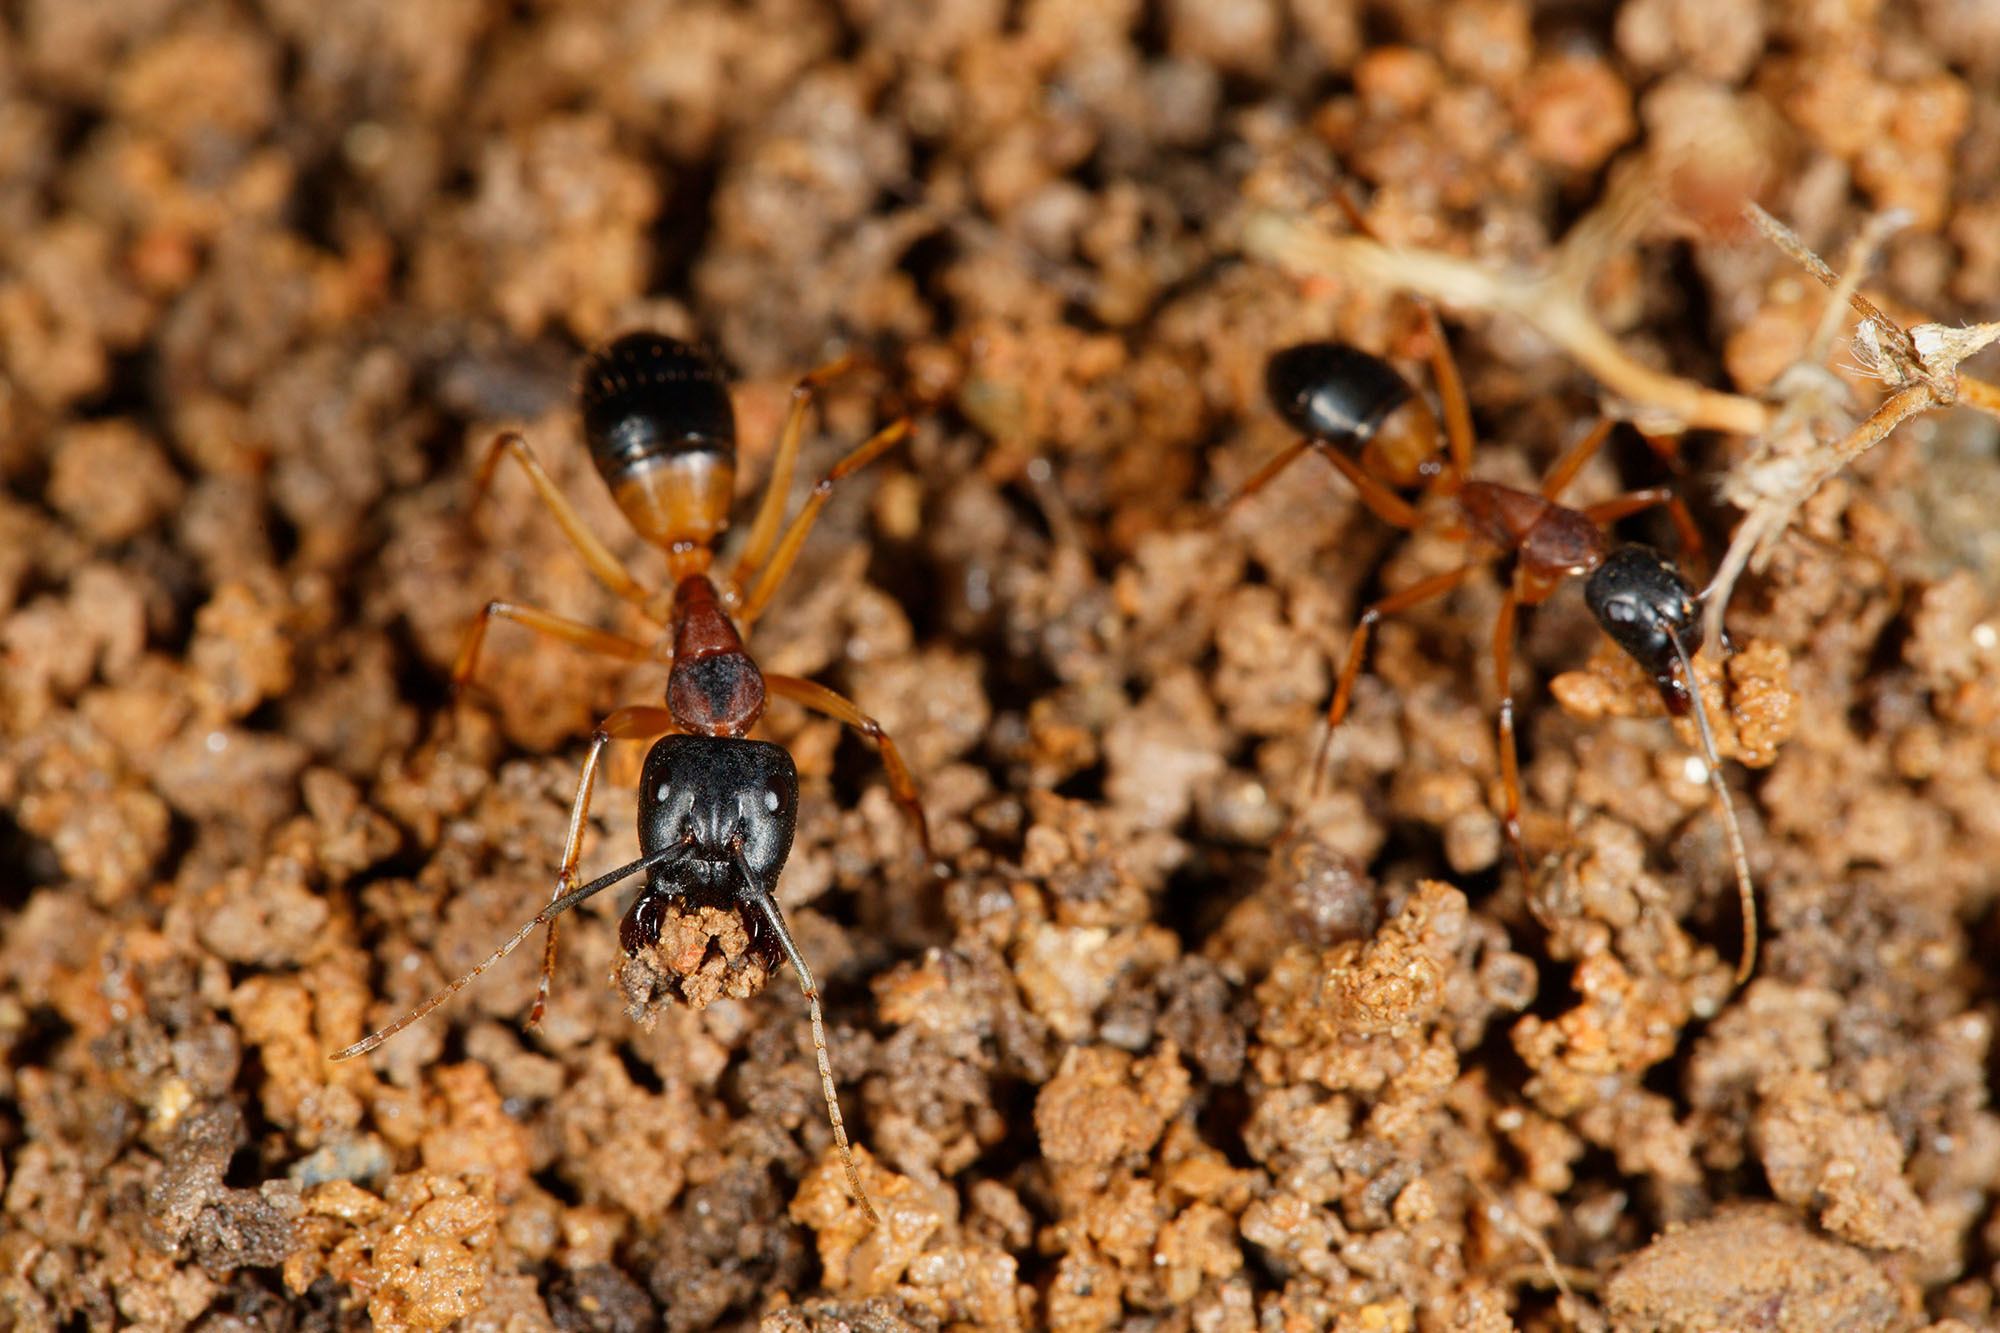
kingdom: Animalia
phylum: Arthropoda
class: Insecta
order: Hymenoptera
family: Formicidae
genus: Camponotus
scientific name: Camponotus consobrinus
